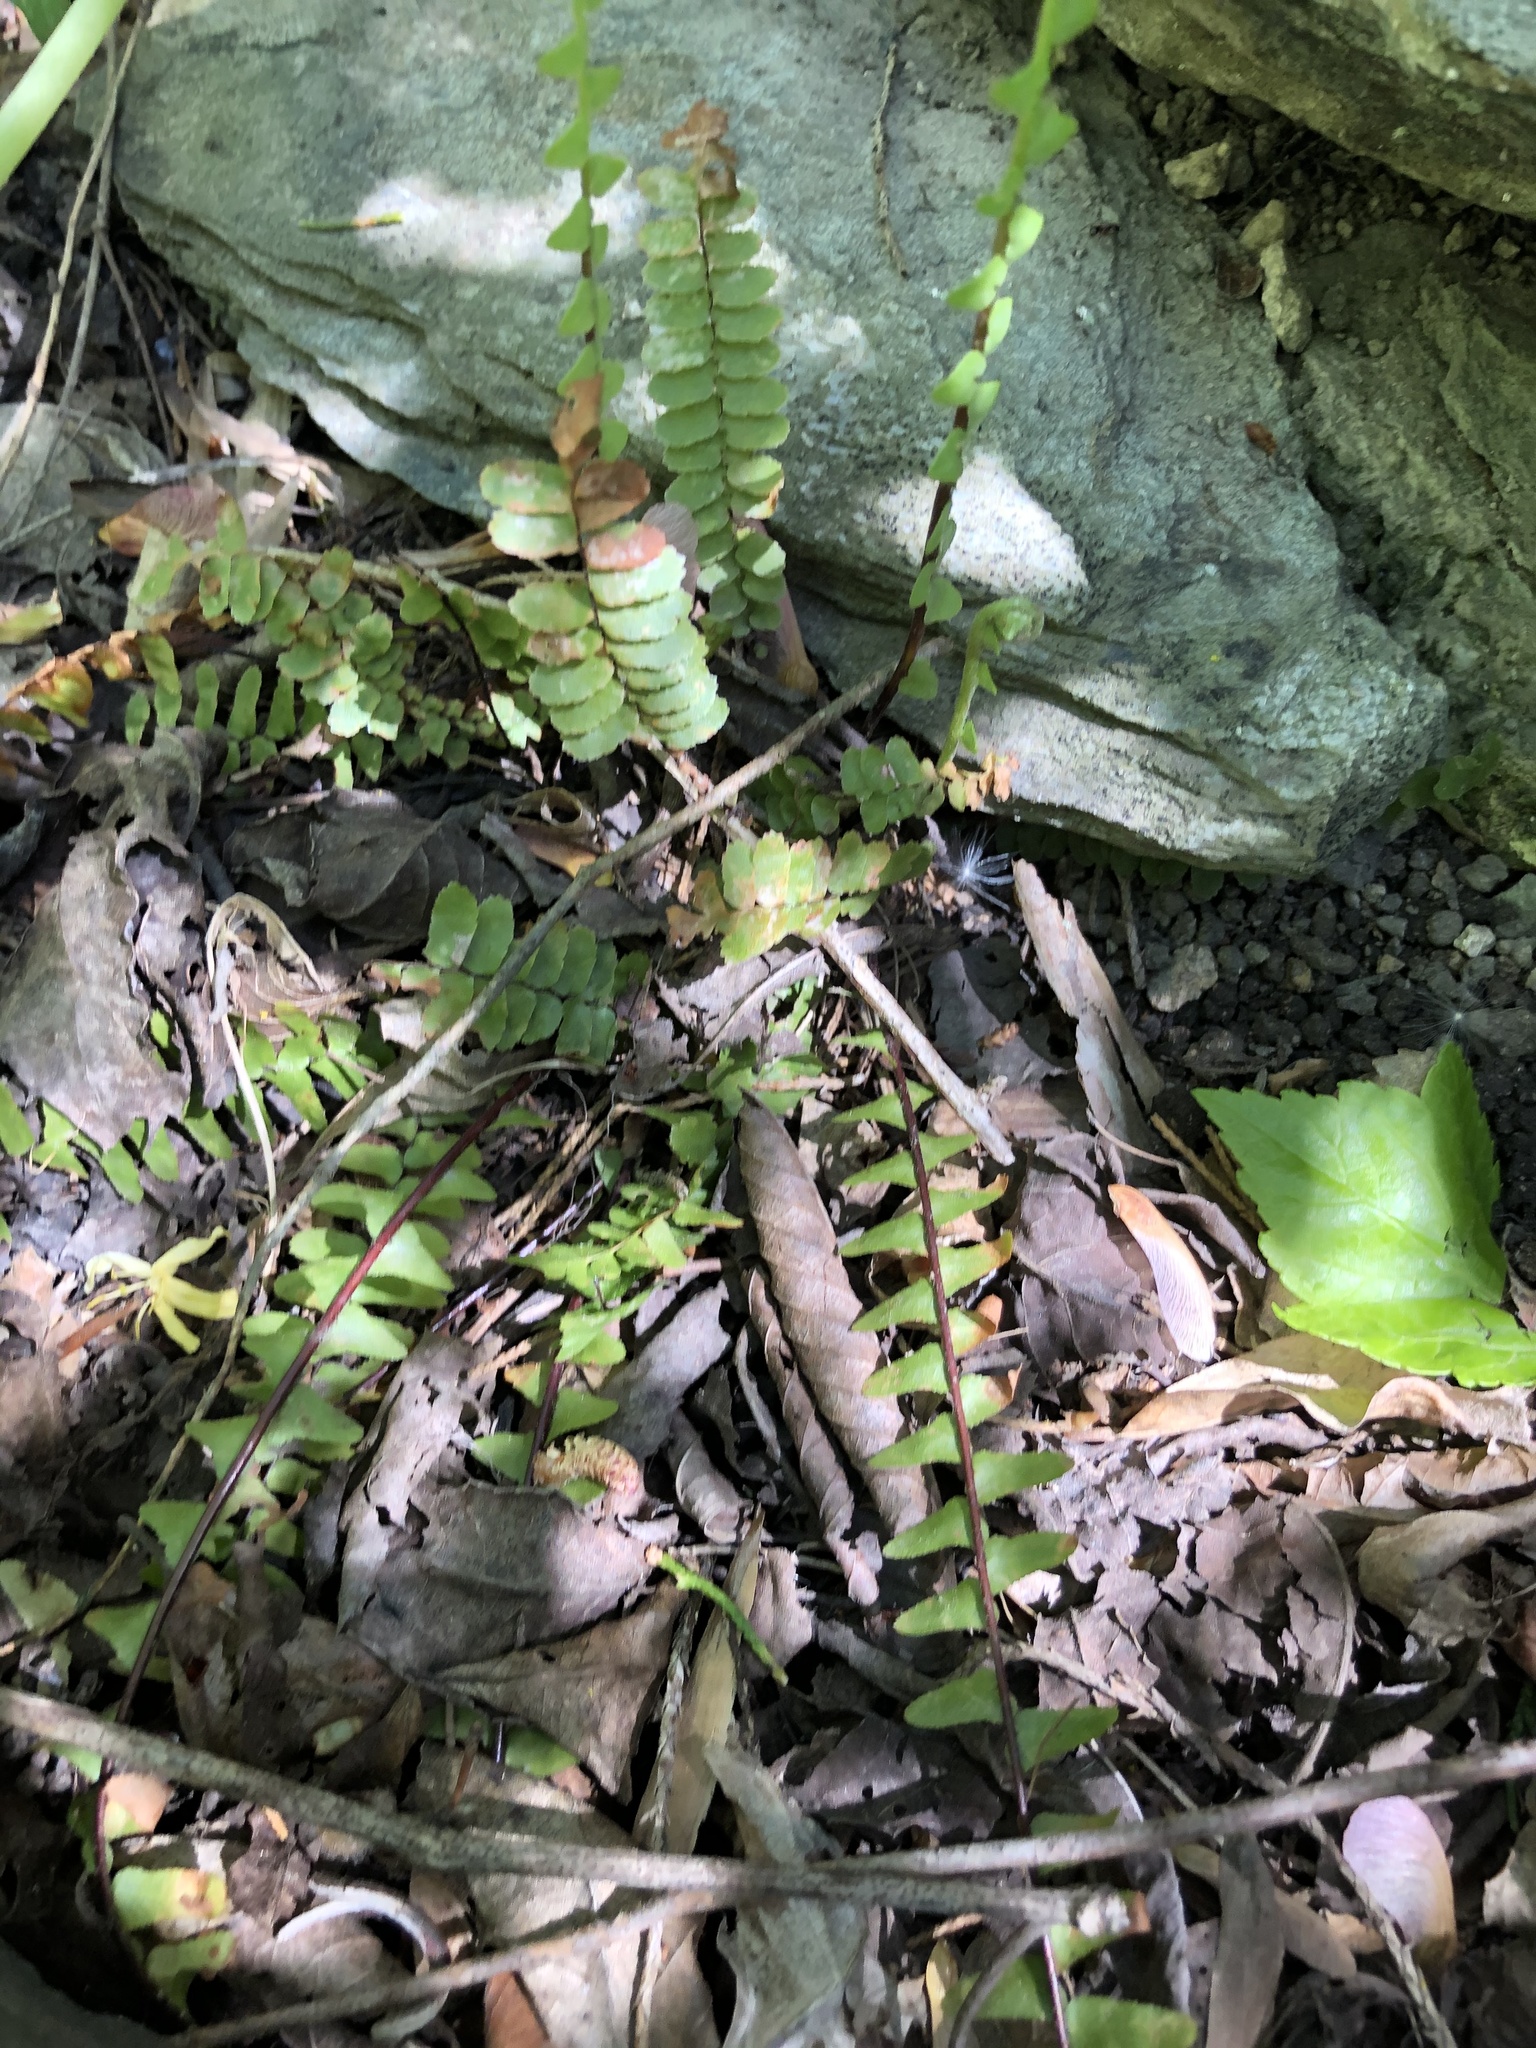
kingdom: Plantae
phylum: Tracheophyta
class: Polypodiopsida
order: Polypodiales
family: Aspleniaceae
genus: Asplenium
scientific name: Asplenium platyneuron
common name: Ebony spleenwort
